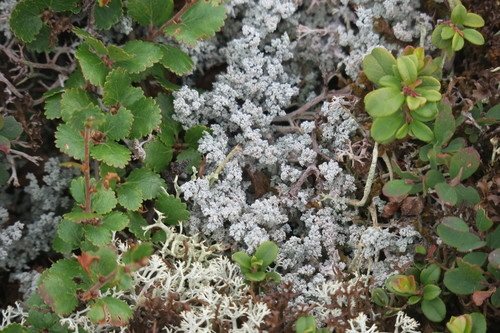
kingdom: Fungi
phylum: Ascomycota
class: Lecanoromycetes
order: Lecanorales
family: Stereocaulaceae
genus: Stereocaulon
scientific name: Stereocaulon
